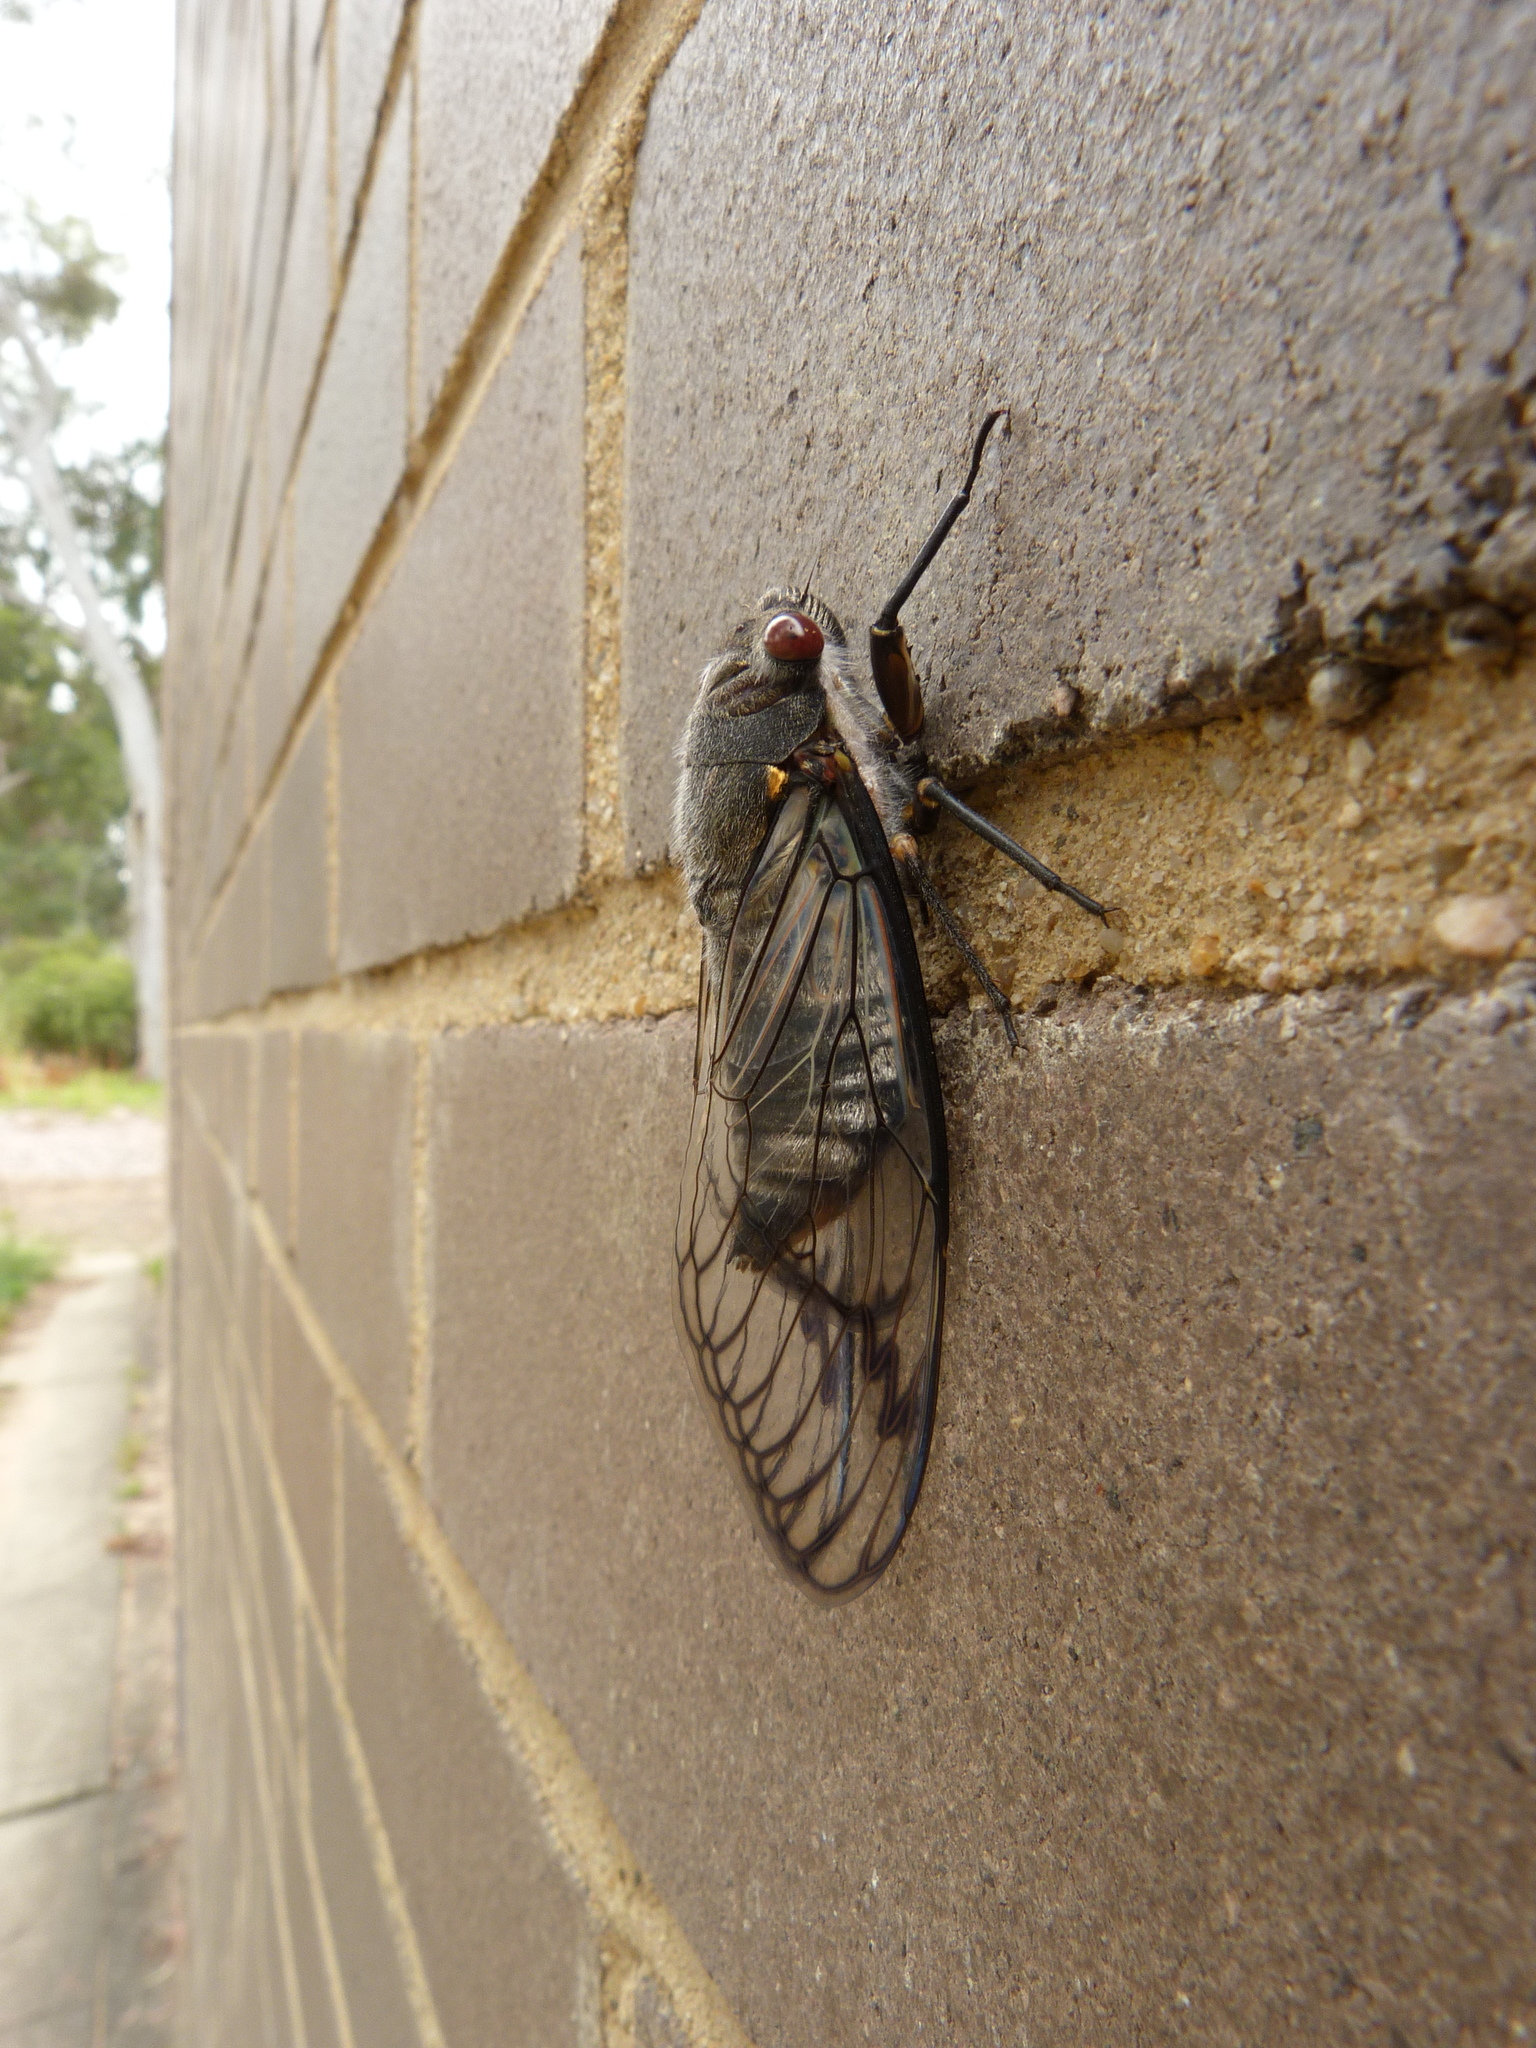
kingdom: Animalia
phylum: Arthropoda
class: Insecta
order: Hemiptera
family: Cicadidae
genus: Psaltoda
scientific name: Psaltoda moerens
